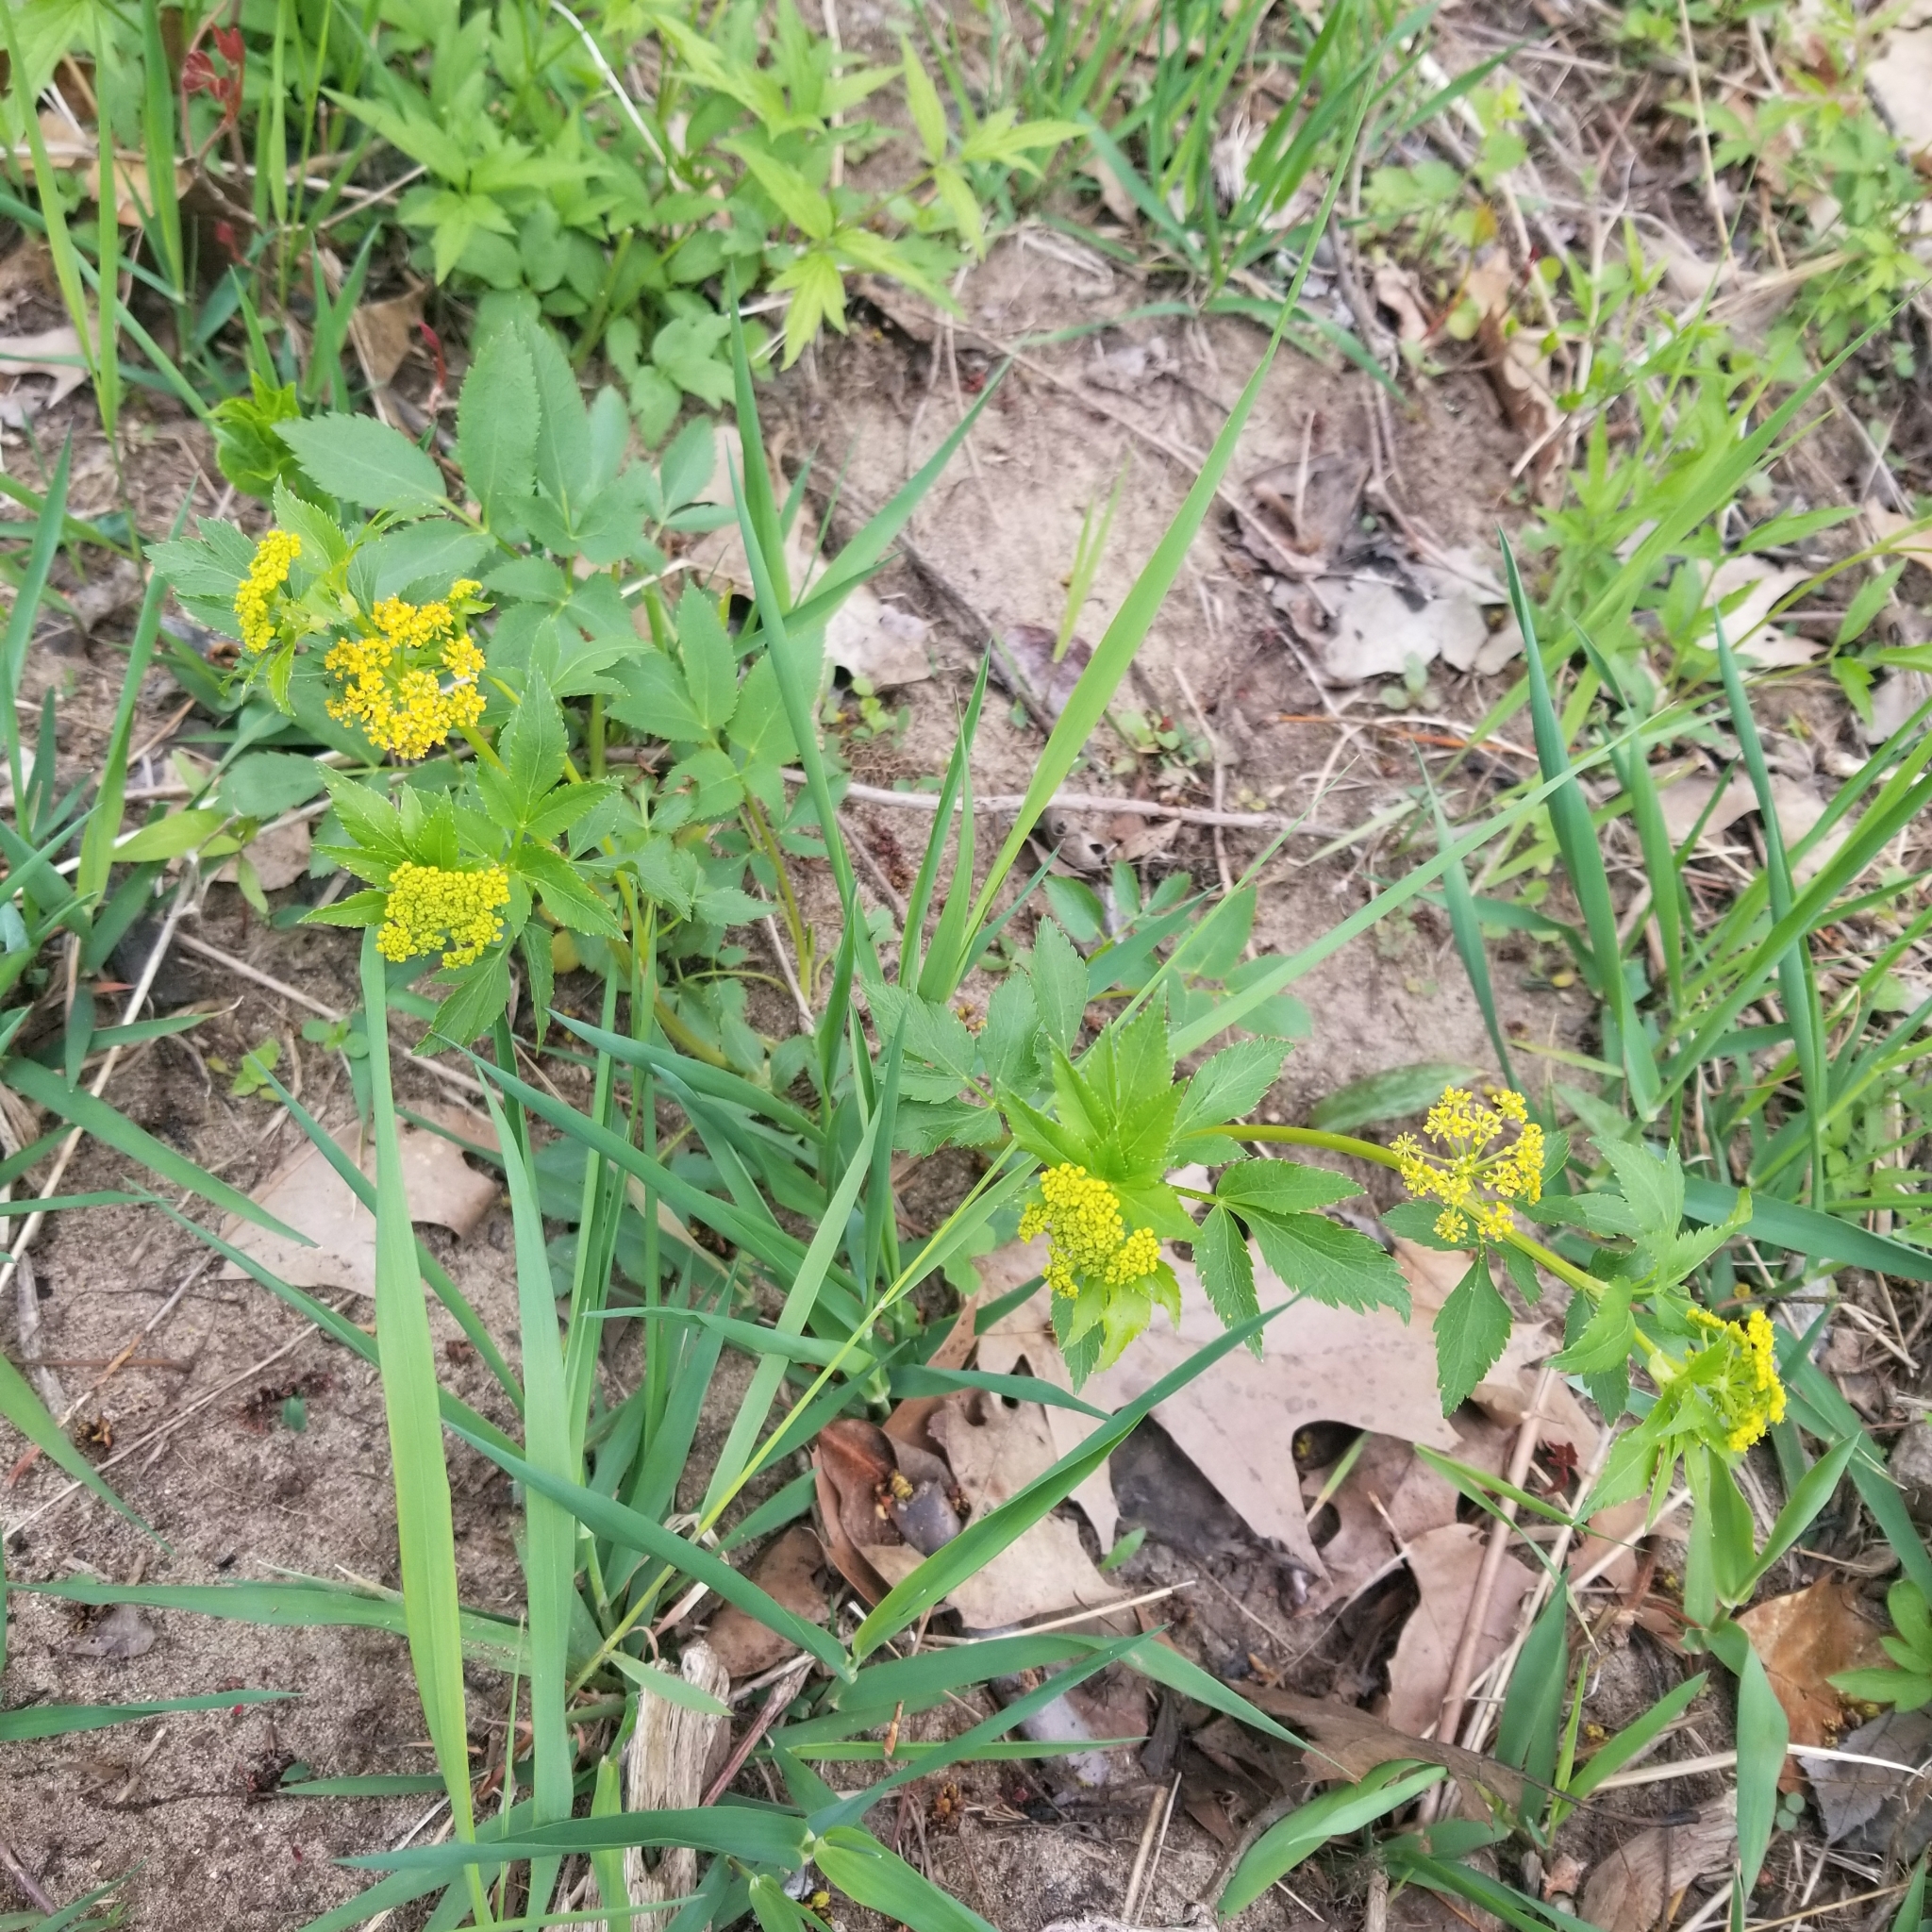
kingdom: Plantae
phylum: Tracheophyta
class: Magnoliopsida
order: Apiales
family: Apiaceae
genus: Zizia
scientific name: Zizia aurea
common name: Golden alexanders
